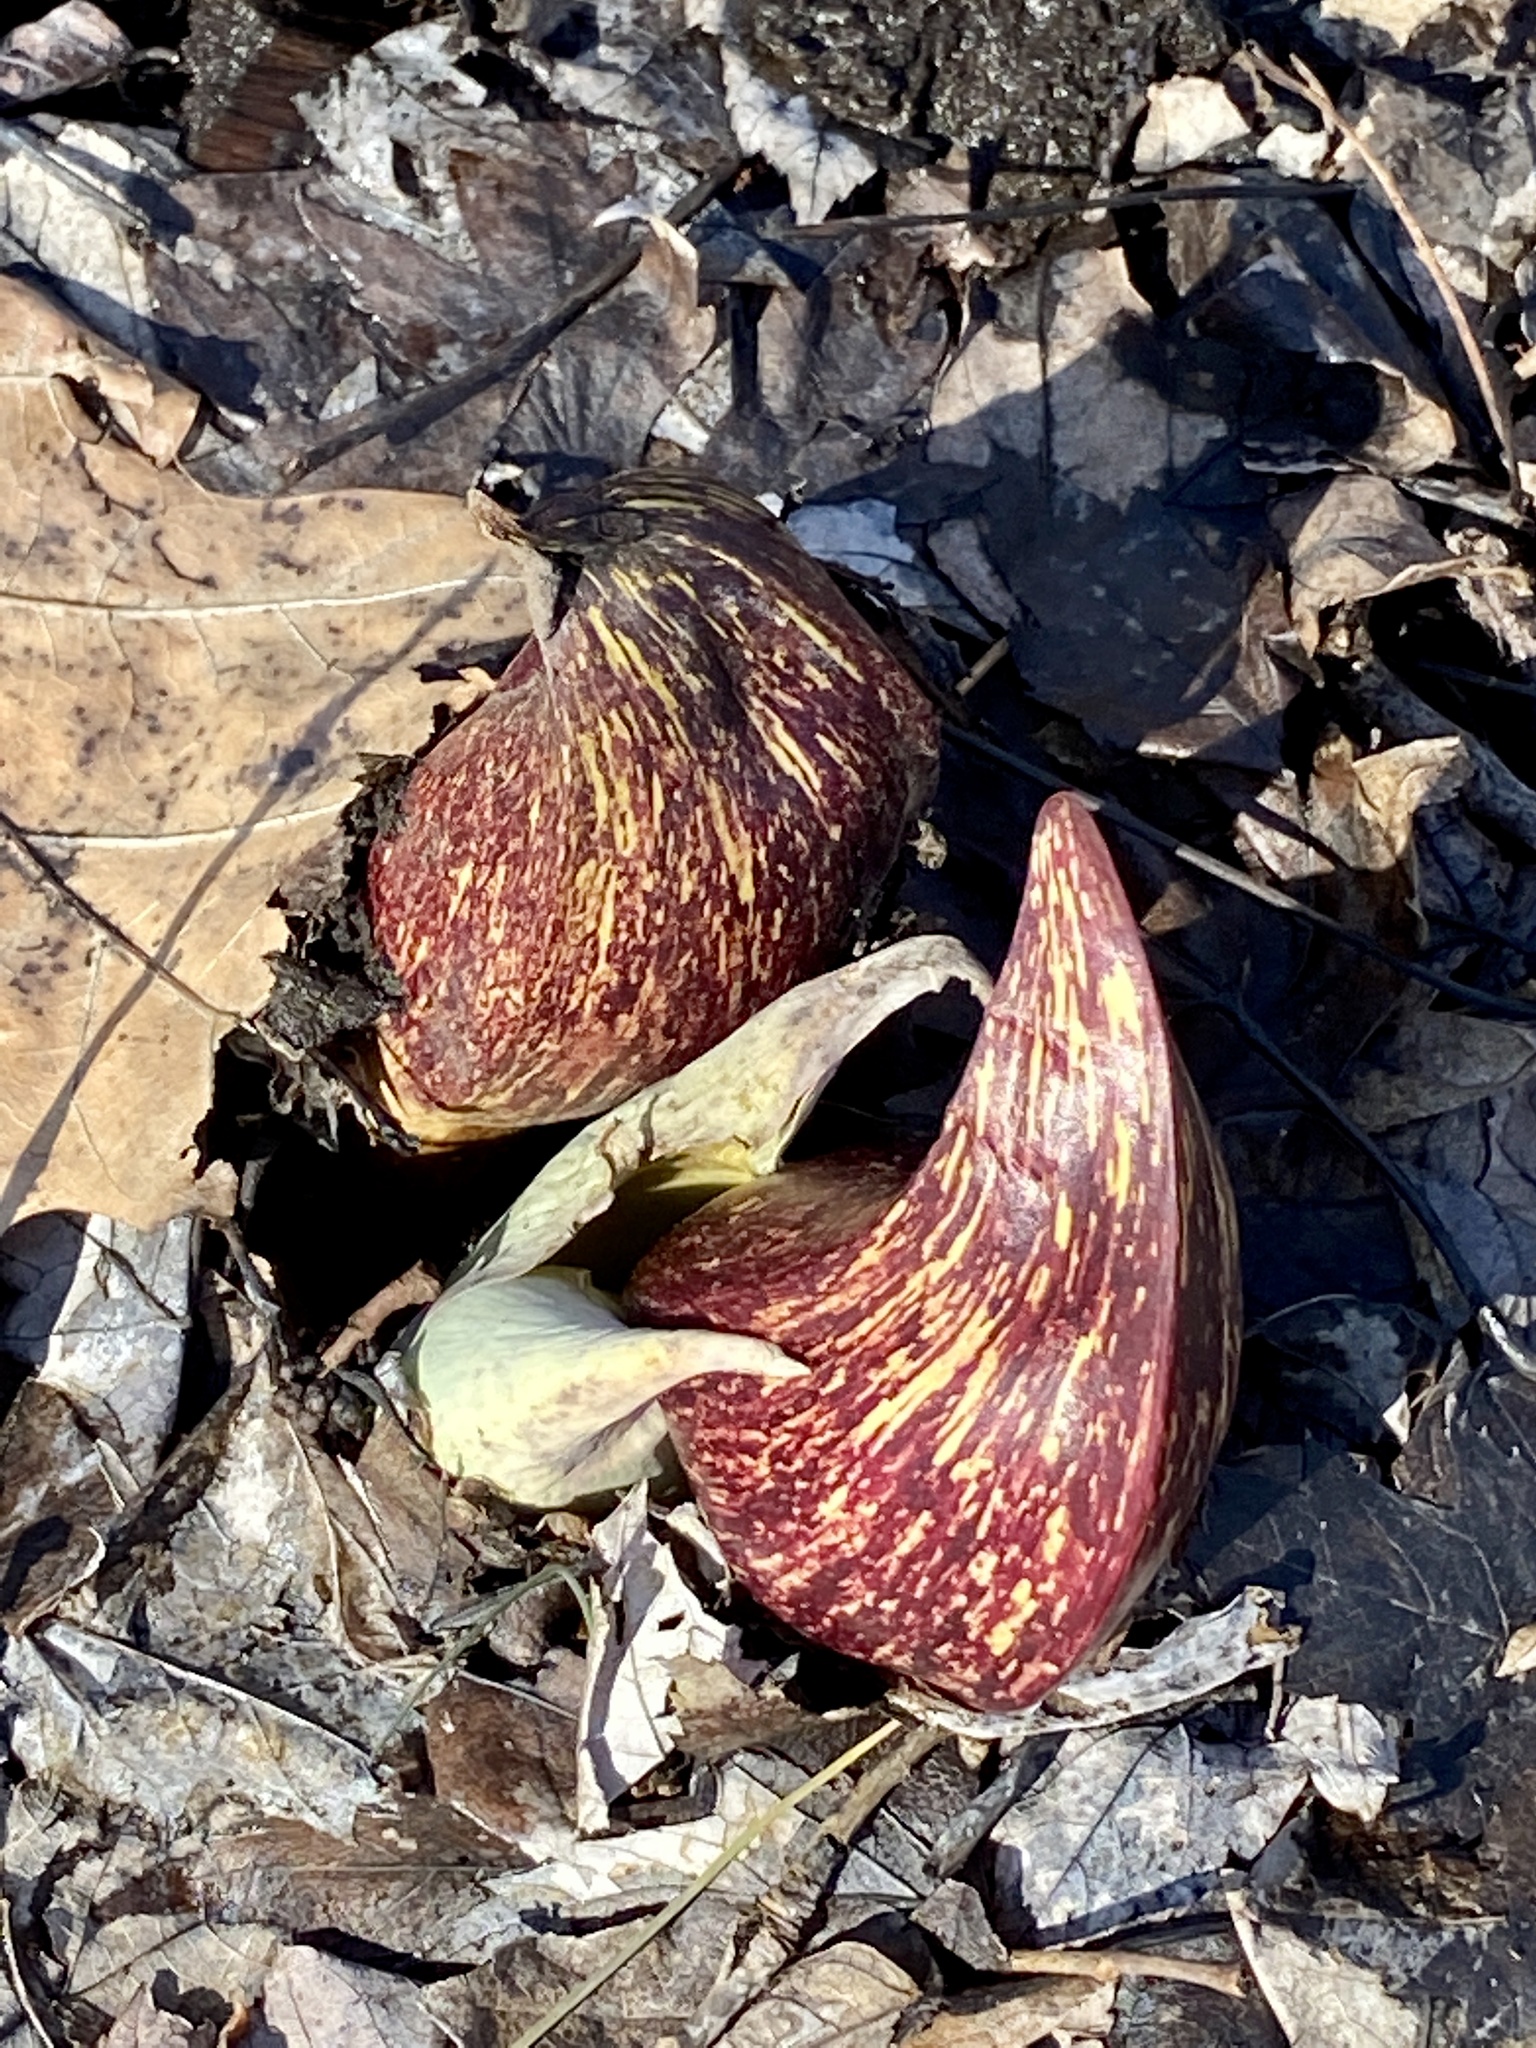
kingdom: Plantae
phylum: Tracheophyta
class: Liliopsida
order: Alismatales
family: Araceae
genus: Symplocarpus
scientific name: Symplocarpus foetidus
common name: Eastern skunk cabbage
